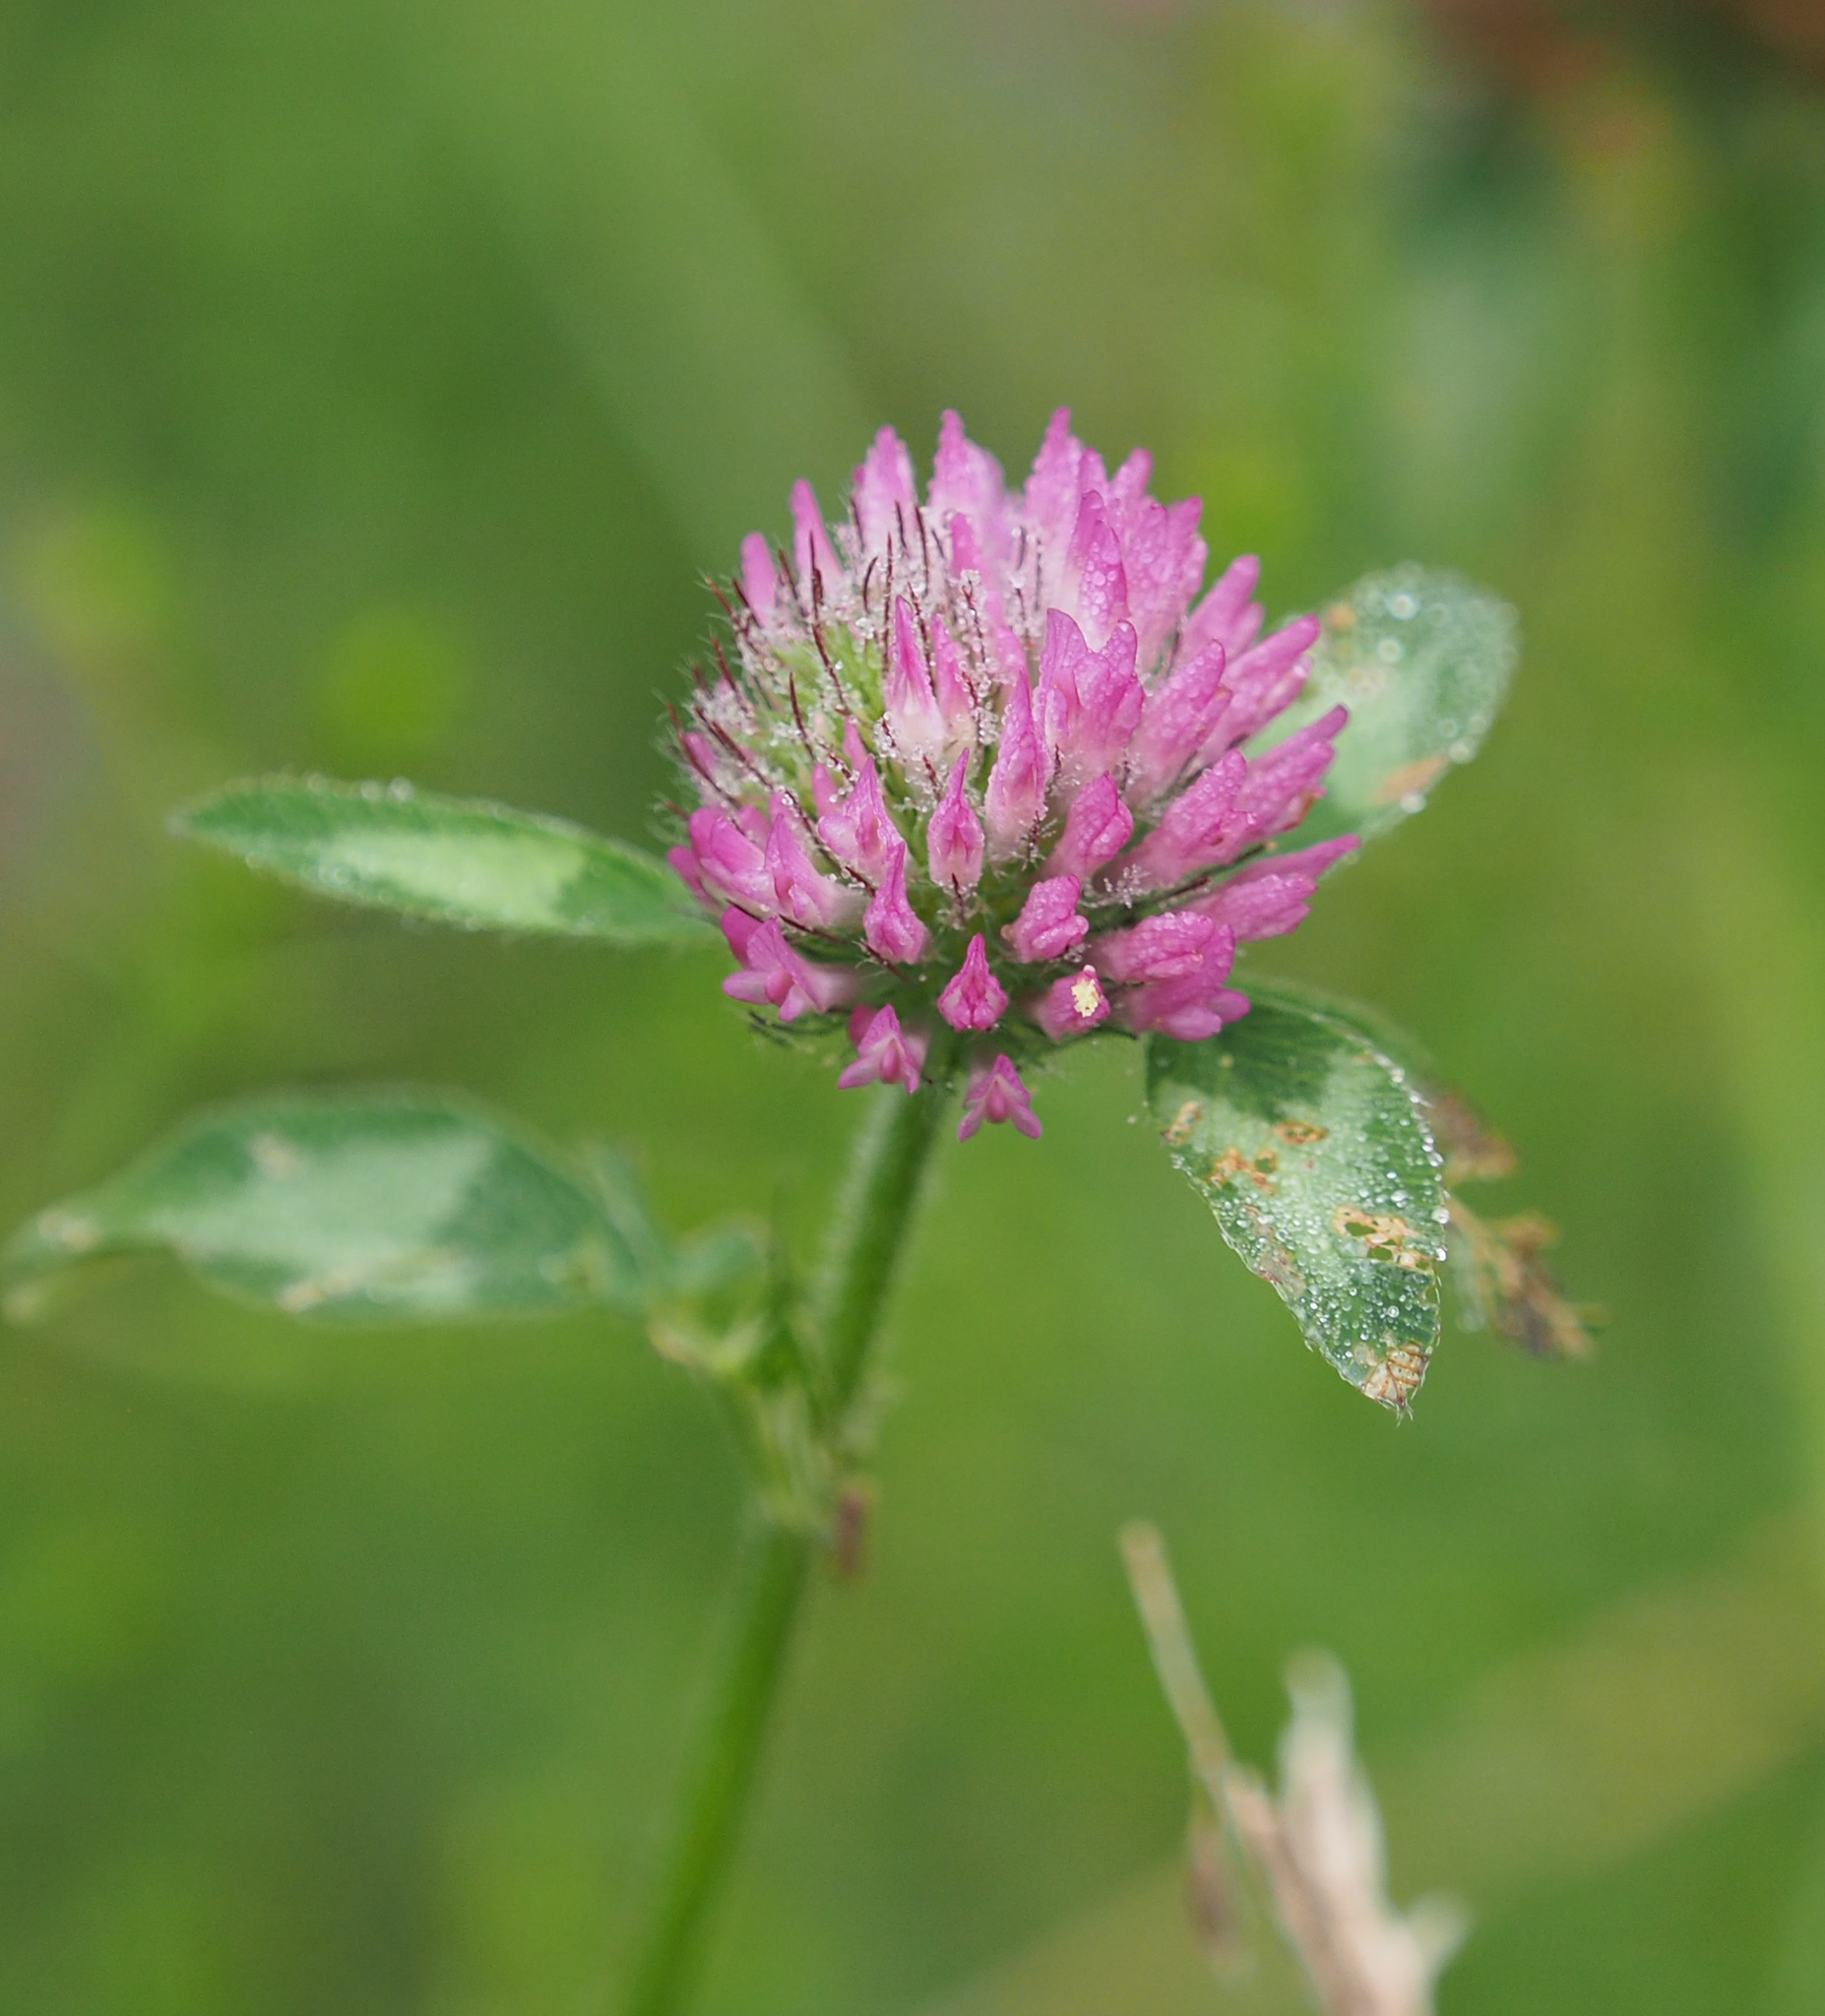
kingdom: Plantae
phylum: Tracheophyta
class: Magnoliopsida
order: Fabales
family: Fabaceae
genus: Trifolium
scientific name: Trifolium pratense
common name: Red clover
